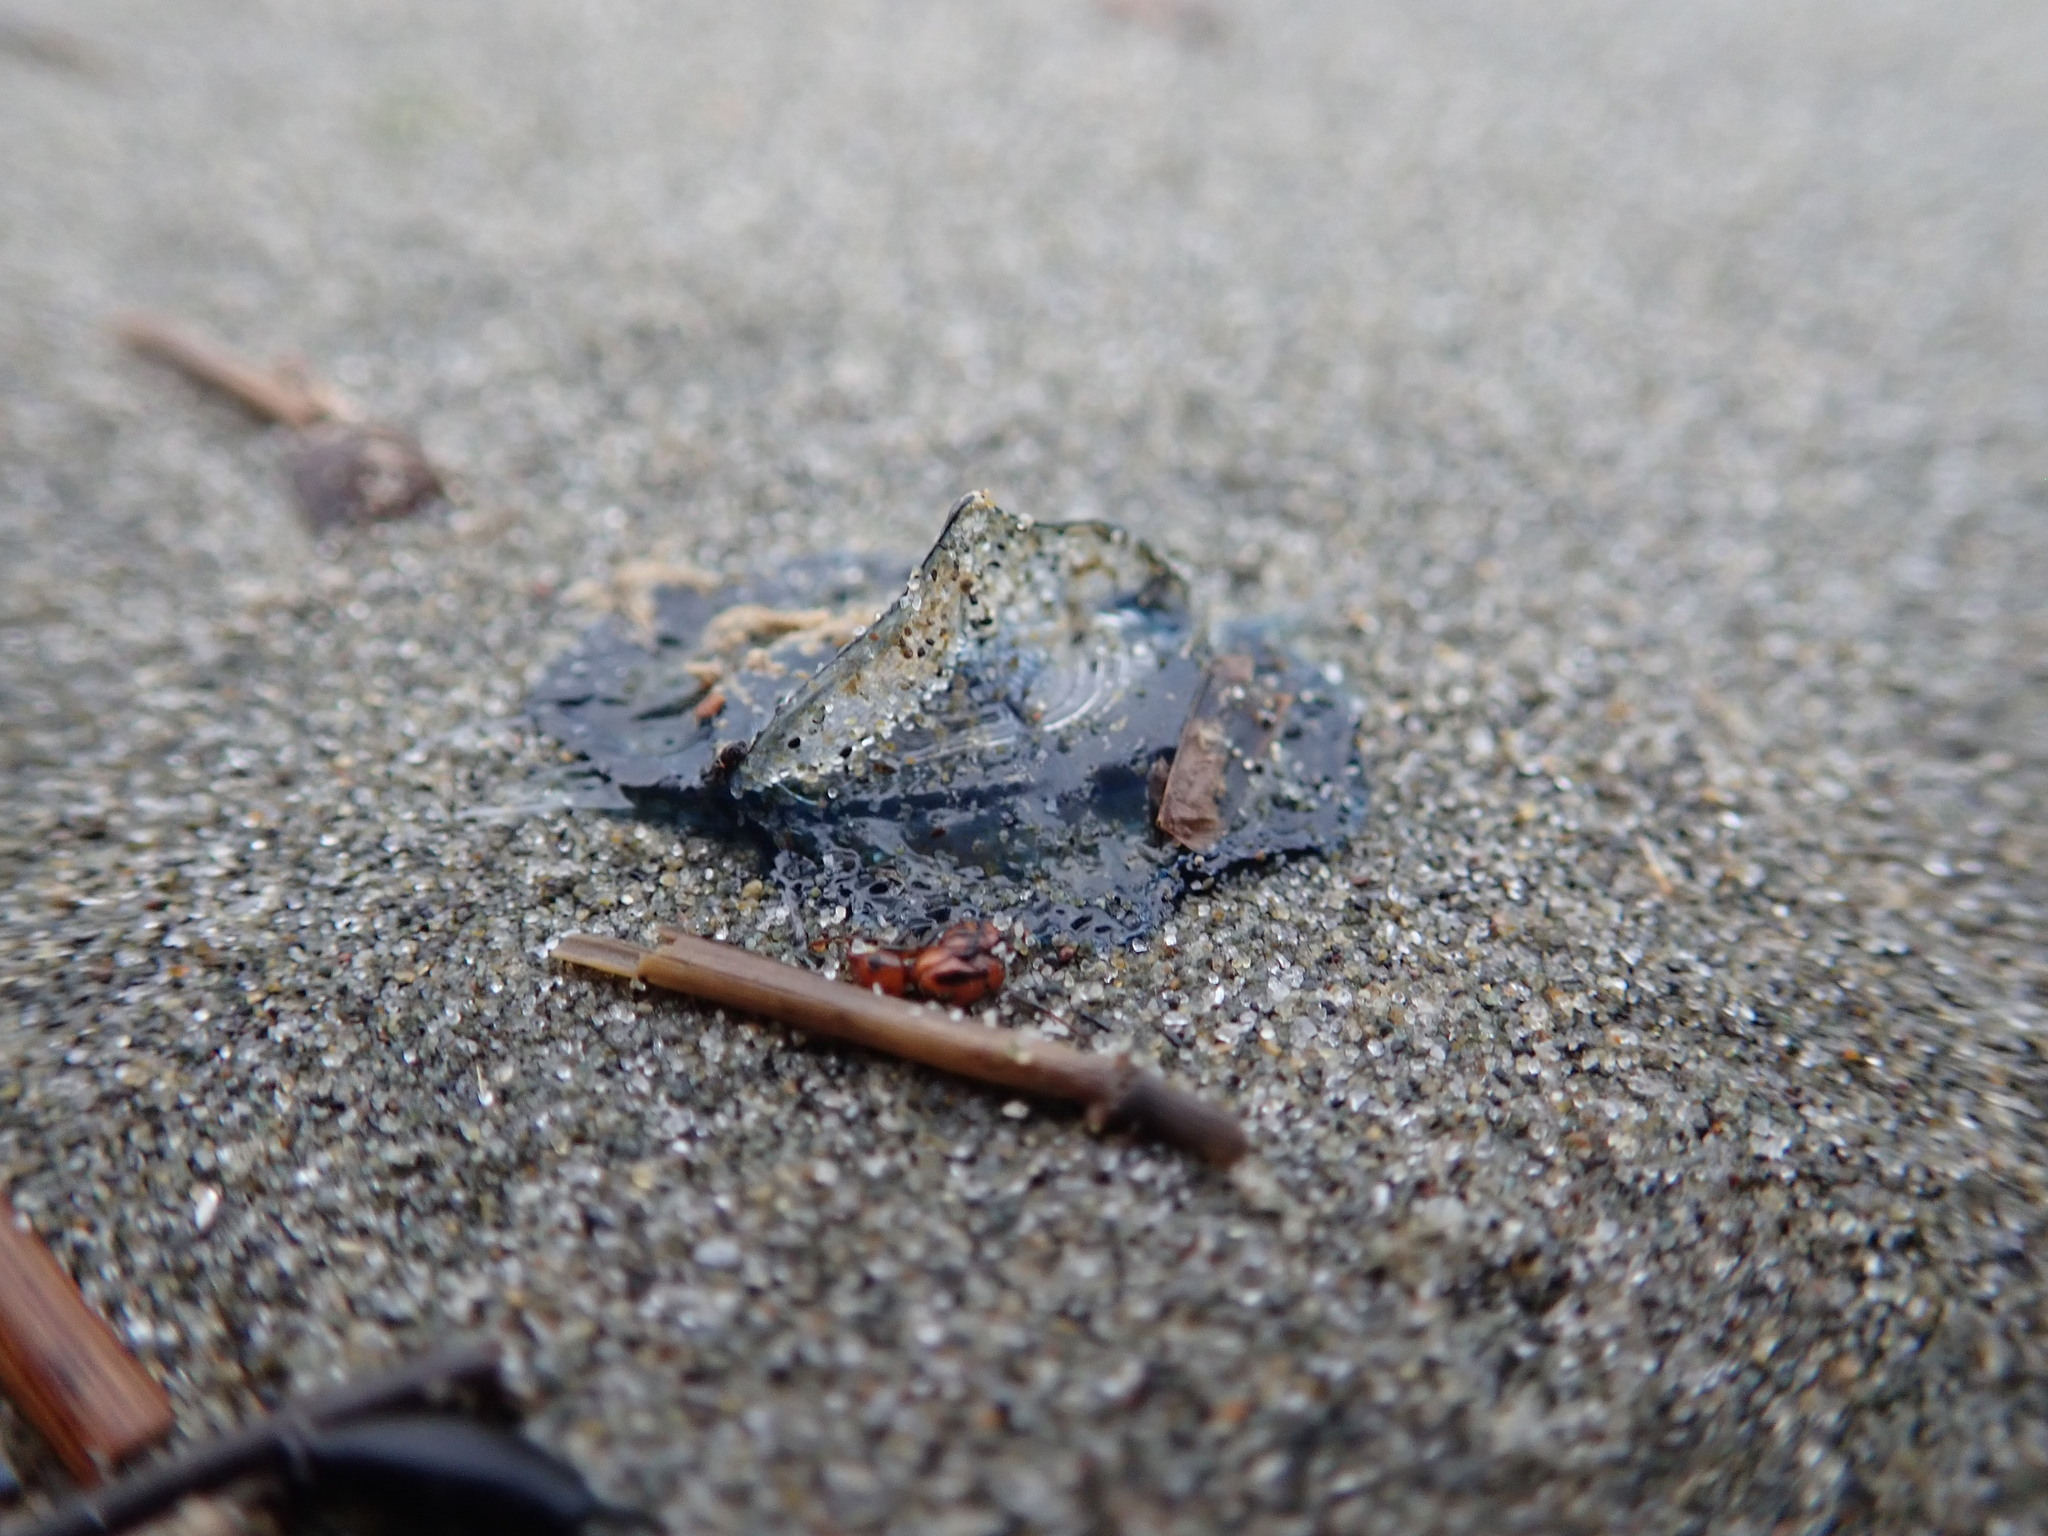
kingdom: Animalia
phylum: Cnidaria
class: Hydrozoa
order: Anthoathecata
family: Porpitidae
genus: Velella
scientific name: Velella velella
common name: By-the-wind-sailor
